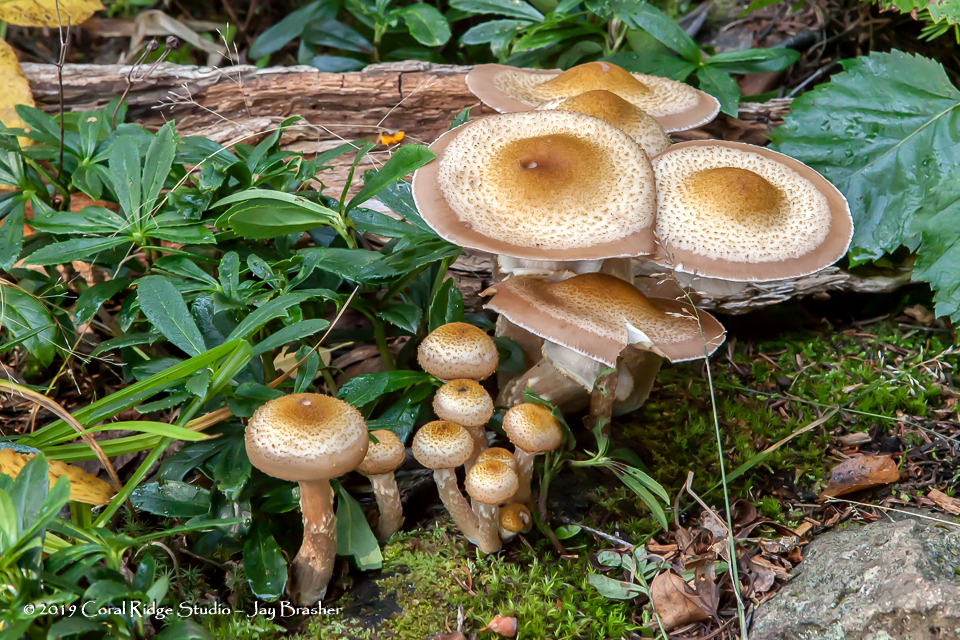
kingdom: Fungi
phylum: Basidiomycota
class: Agaricomycetes
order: Agaricales
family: Physalacriaceae
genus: Armillaria
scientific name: Armillaria mellea
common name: Honey fungus
